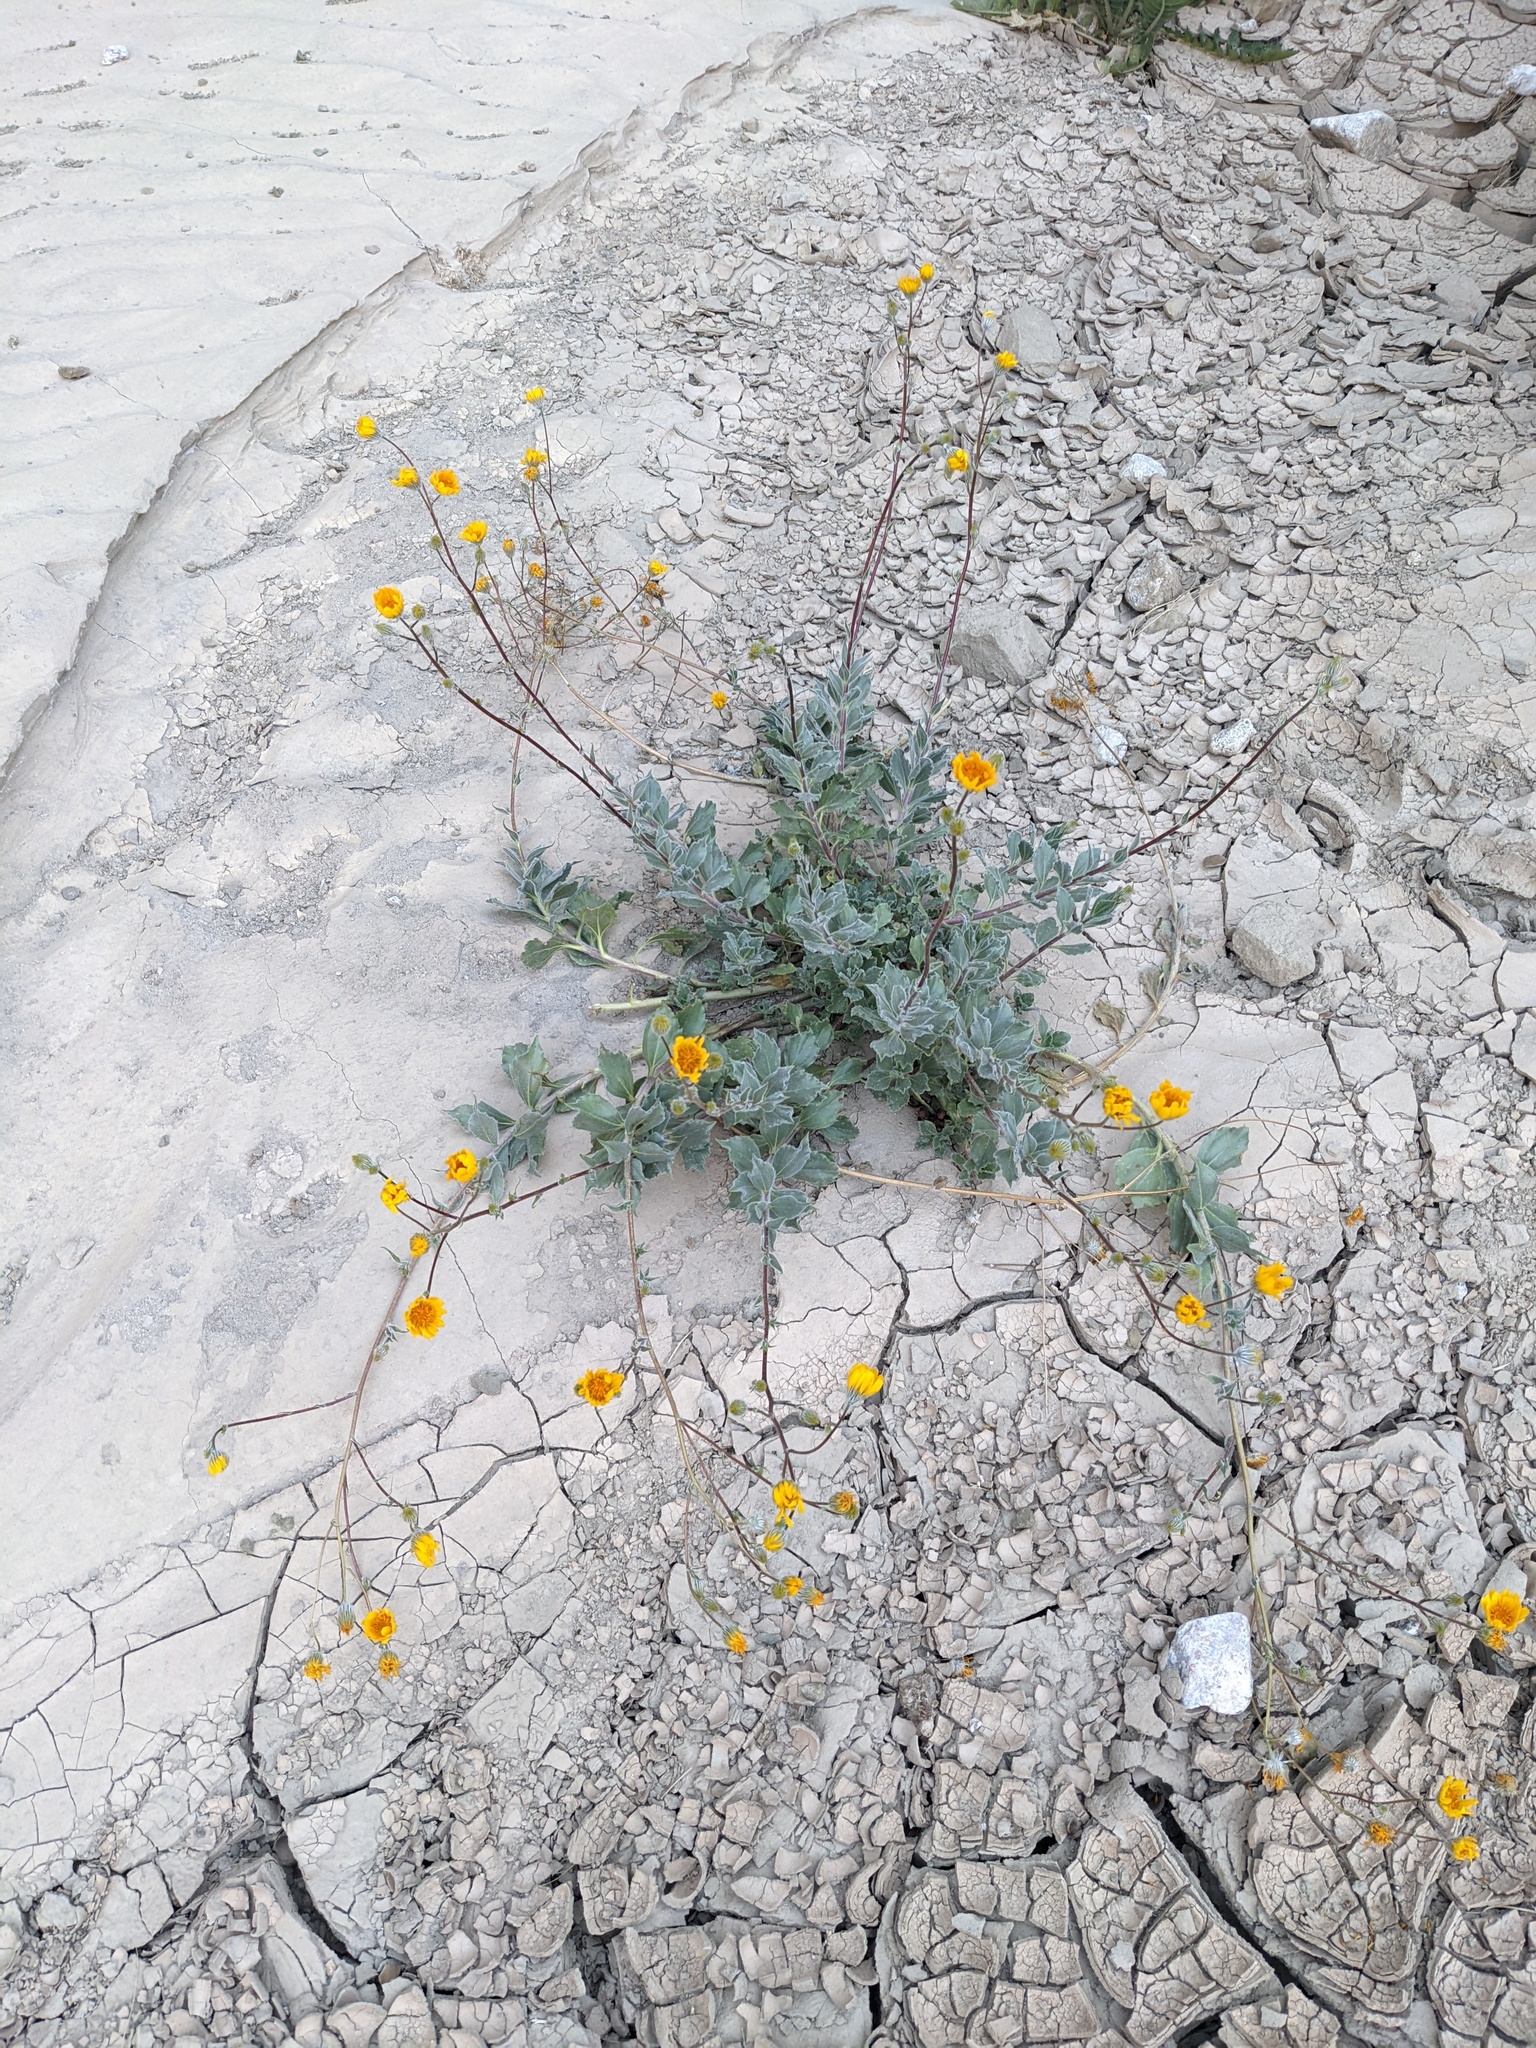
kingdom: Plantae
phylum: Tracheophyta
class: Magnoliopsida
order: Asterales
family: Asteraceae
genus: Geraea
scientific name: Geraea canescens
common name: Desert-gold
